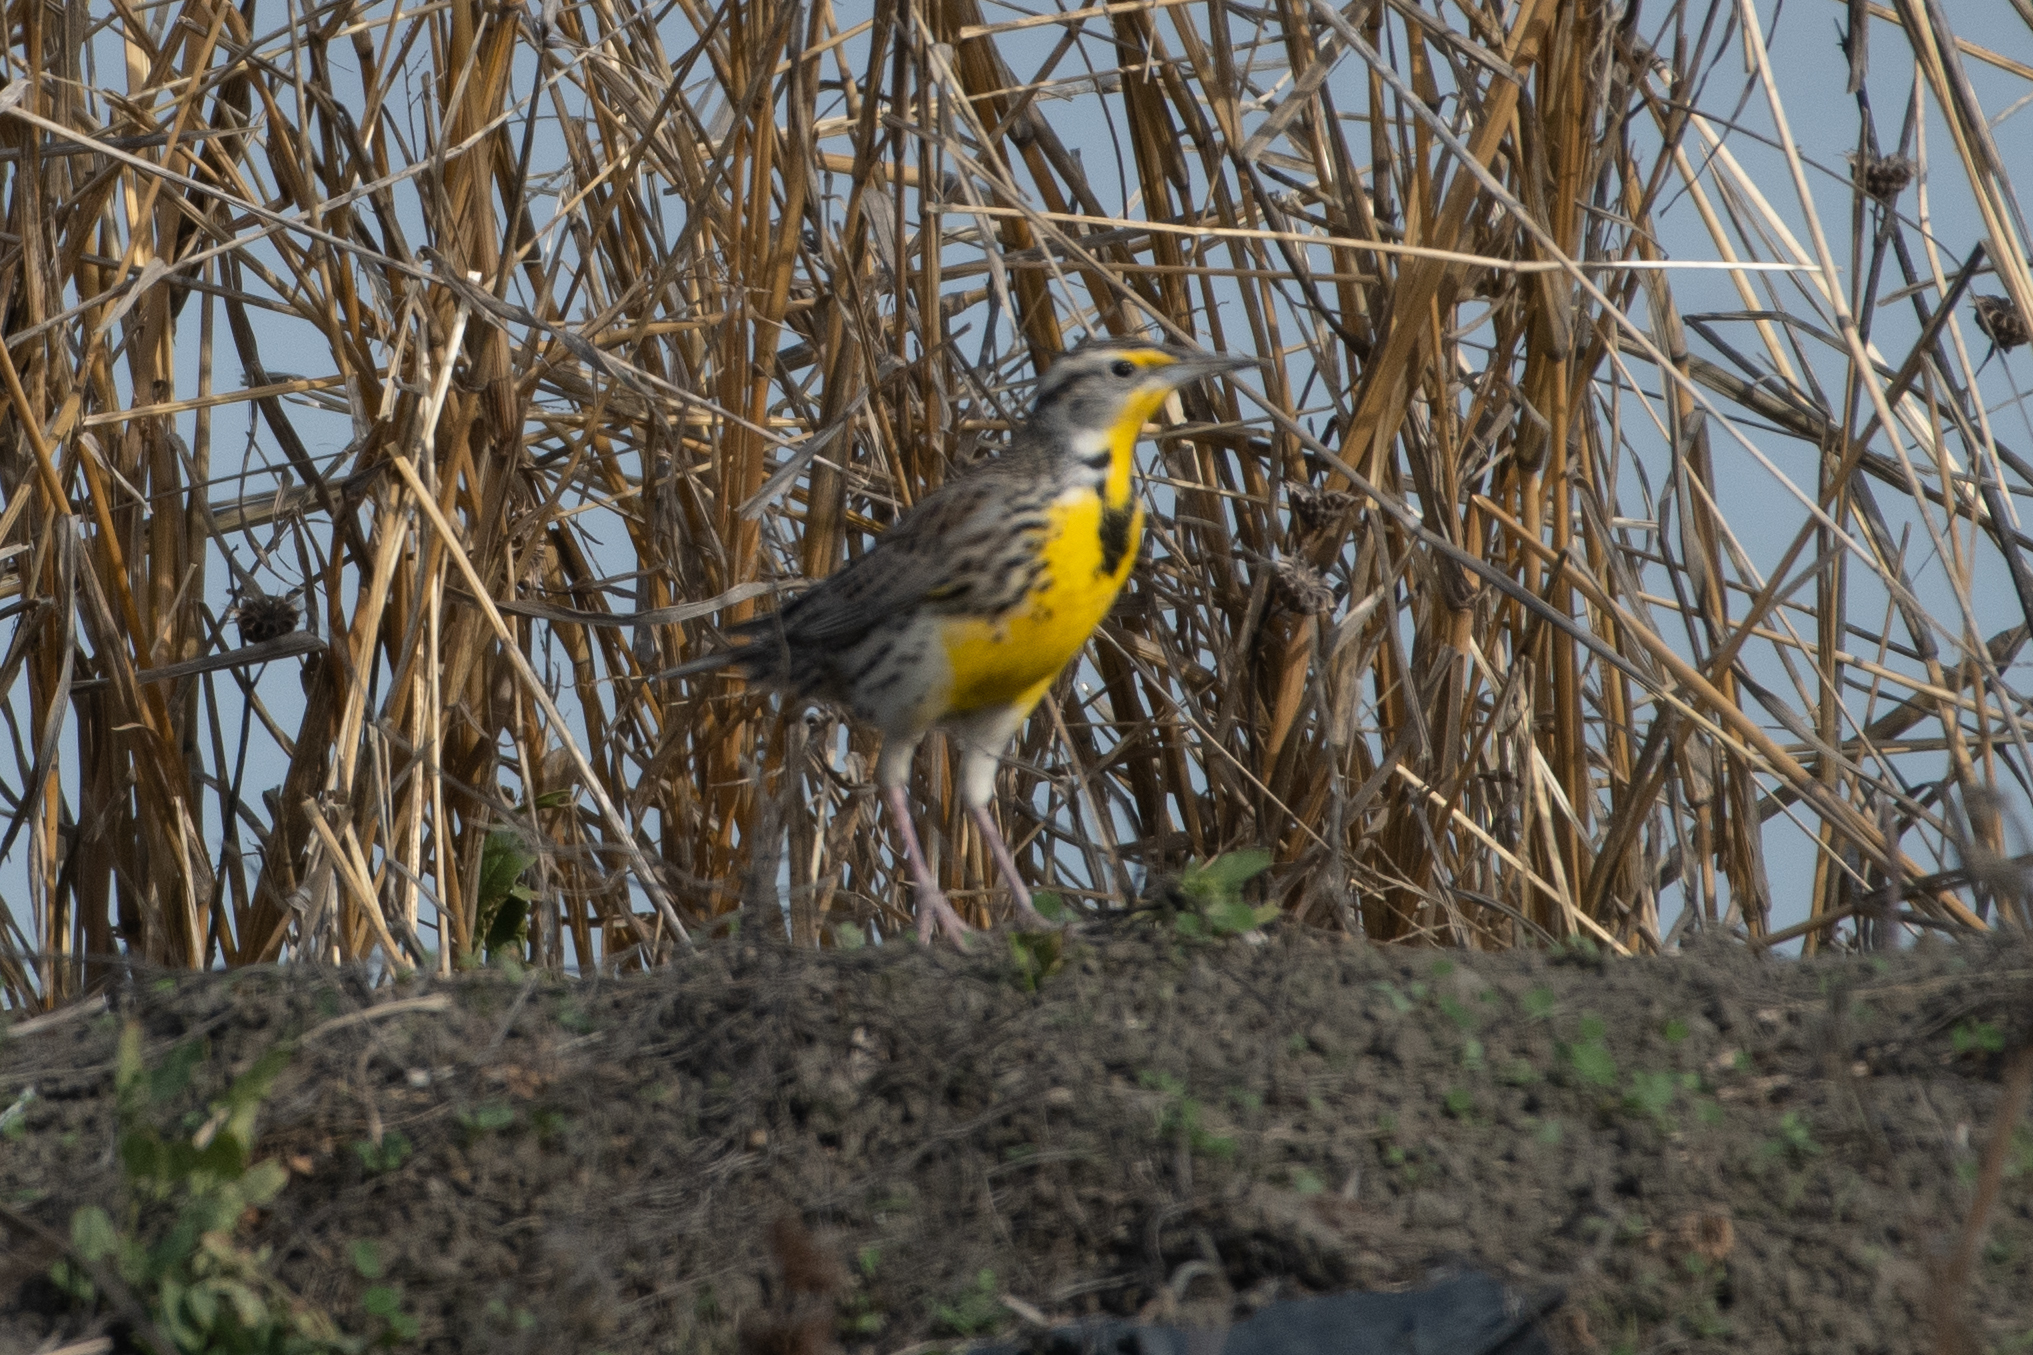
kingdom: Animalia
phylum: Chordata
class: Aves
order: Passeriformes
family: Icteridae
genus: Sturnella
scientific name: Sturnella neglecta
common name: Western meadowlark
